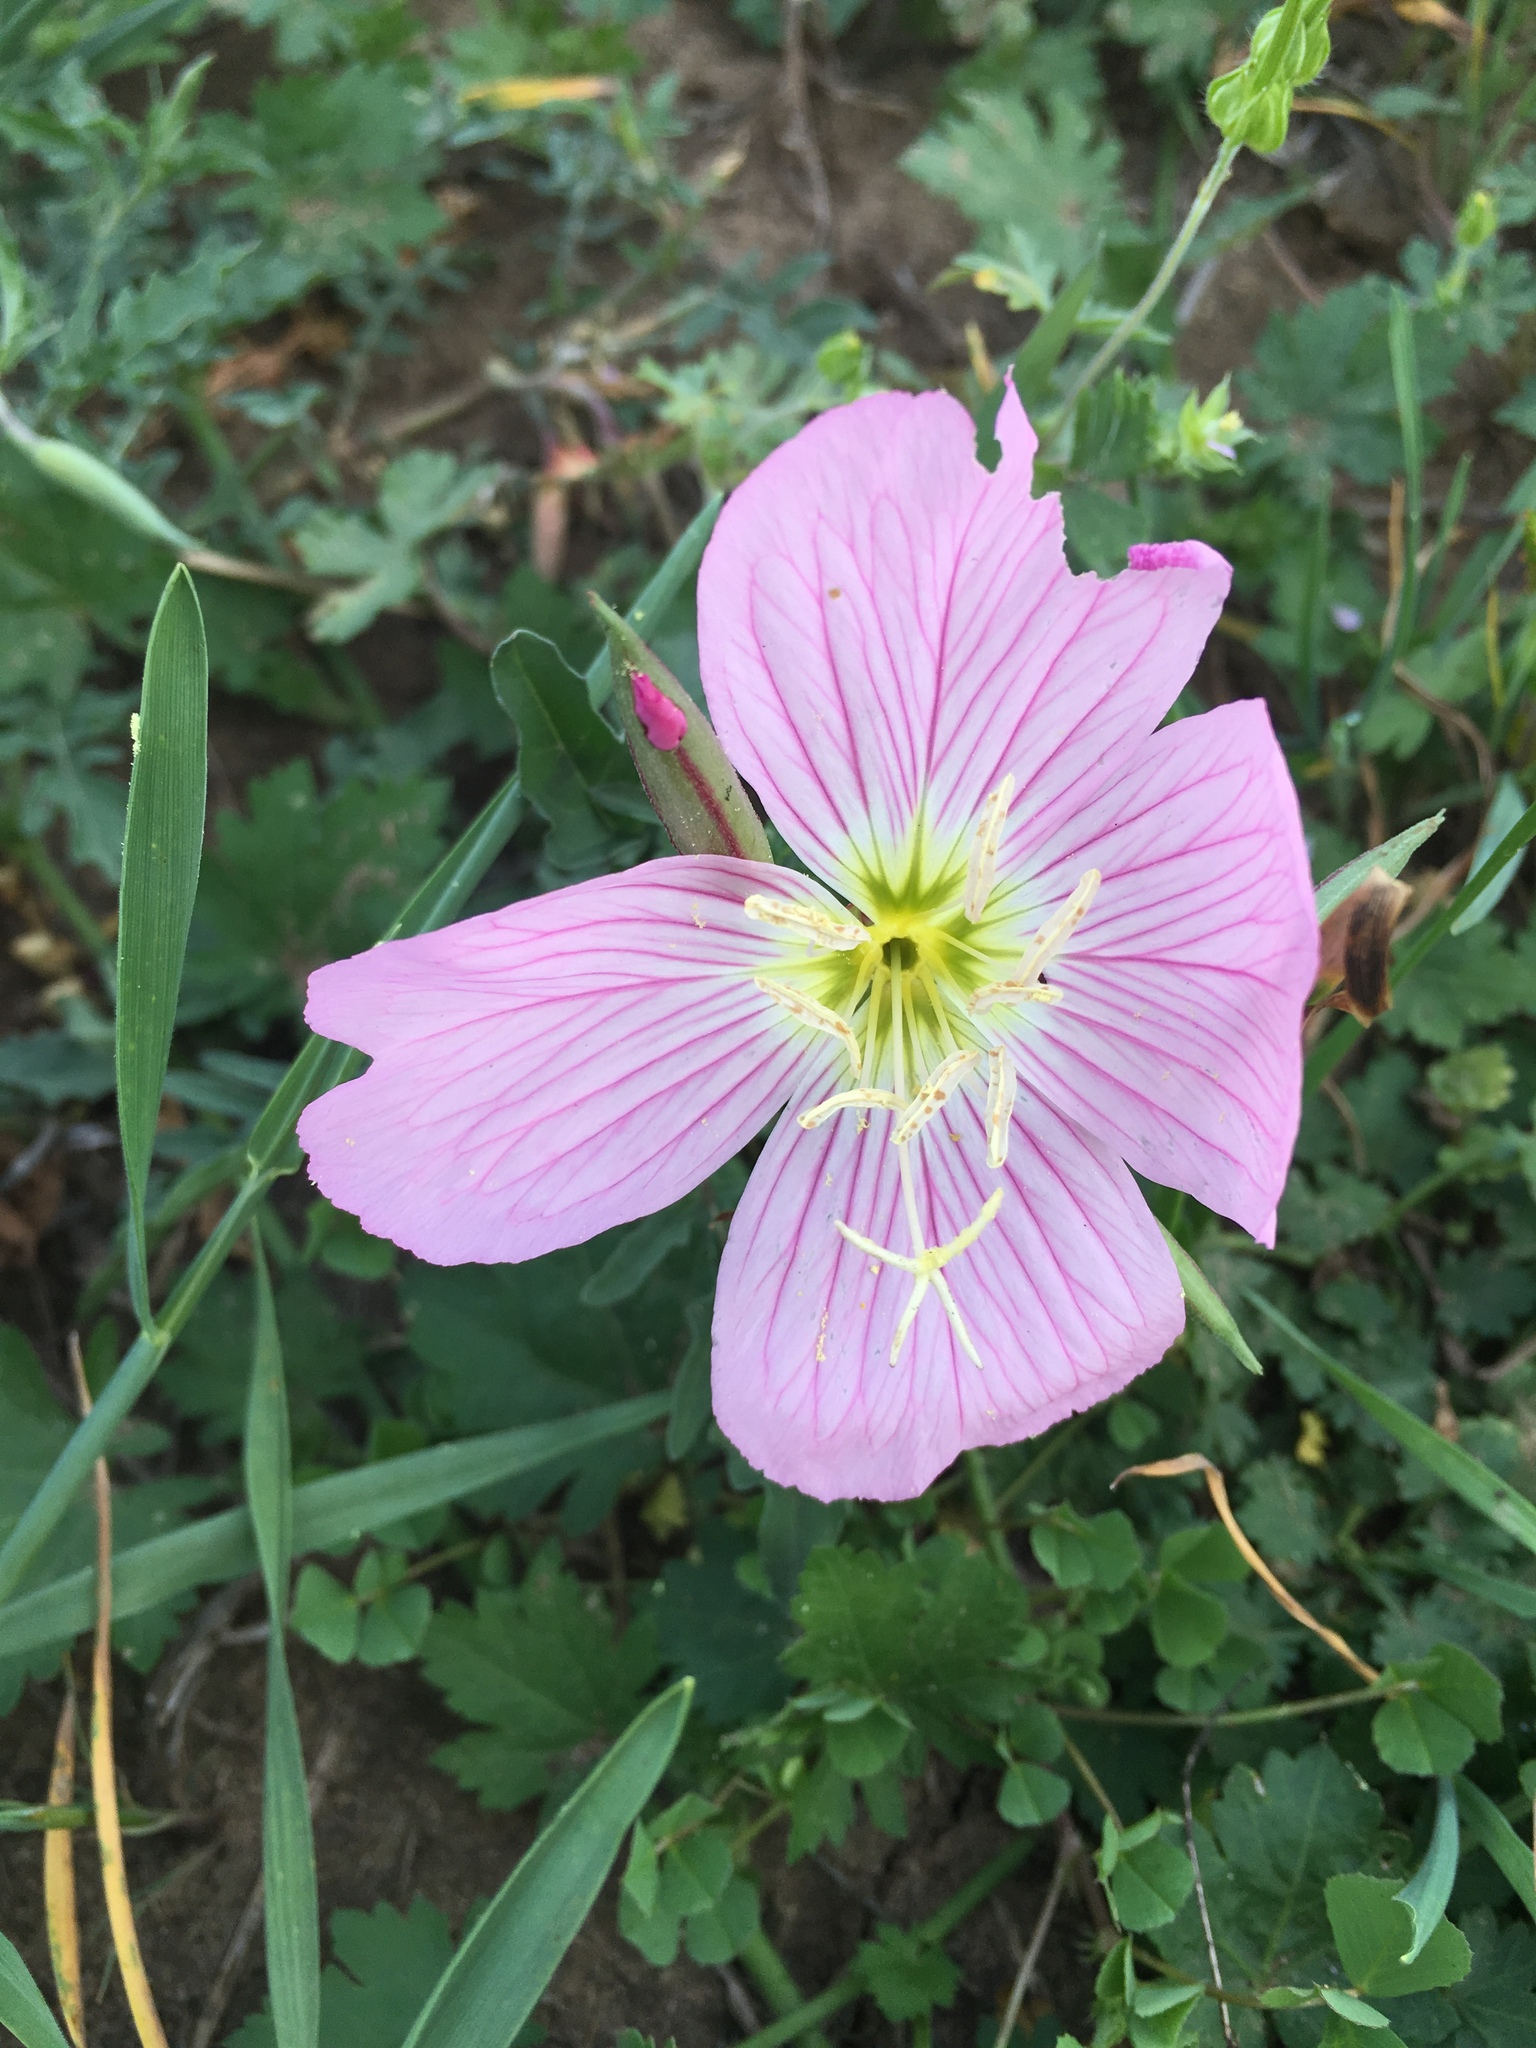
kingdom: Plantae
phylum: Tracheophyta
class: Magnoliopsida
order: Myrtales
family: Onagraceae
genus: Oenothera
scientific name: Oenothera speciosa
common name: White evening-primrose
